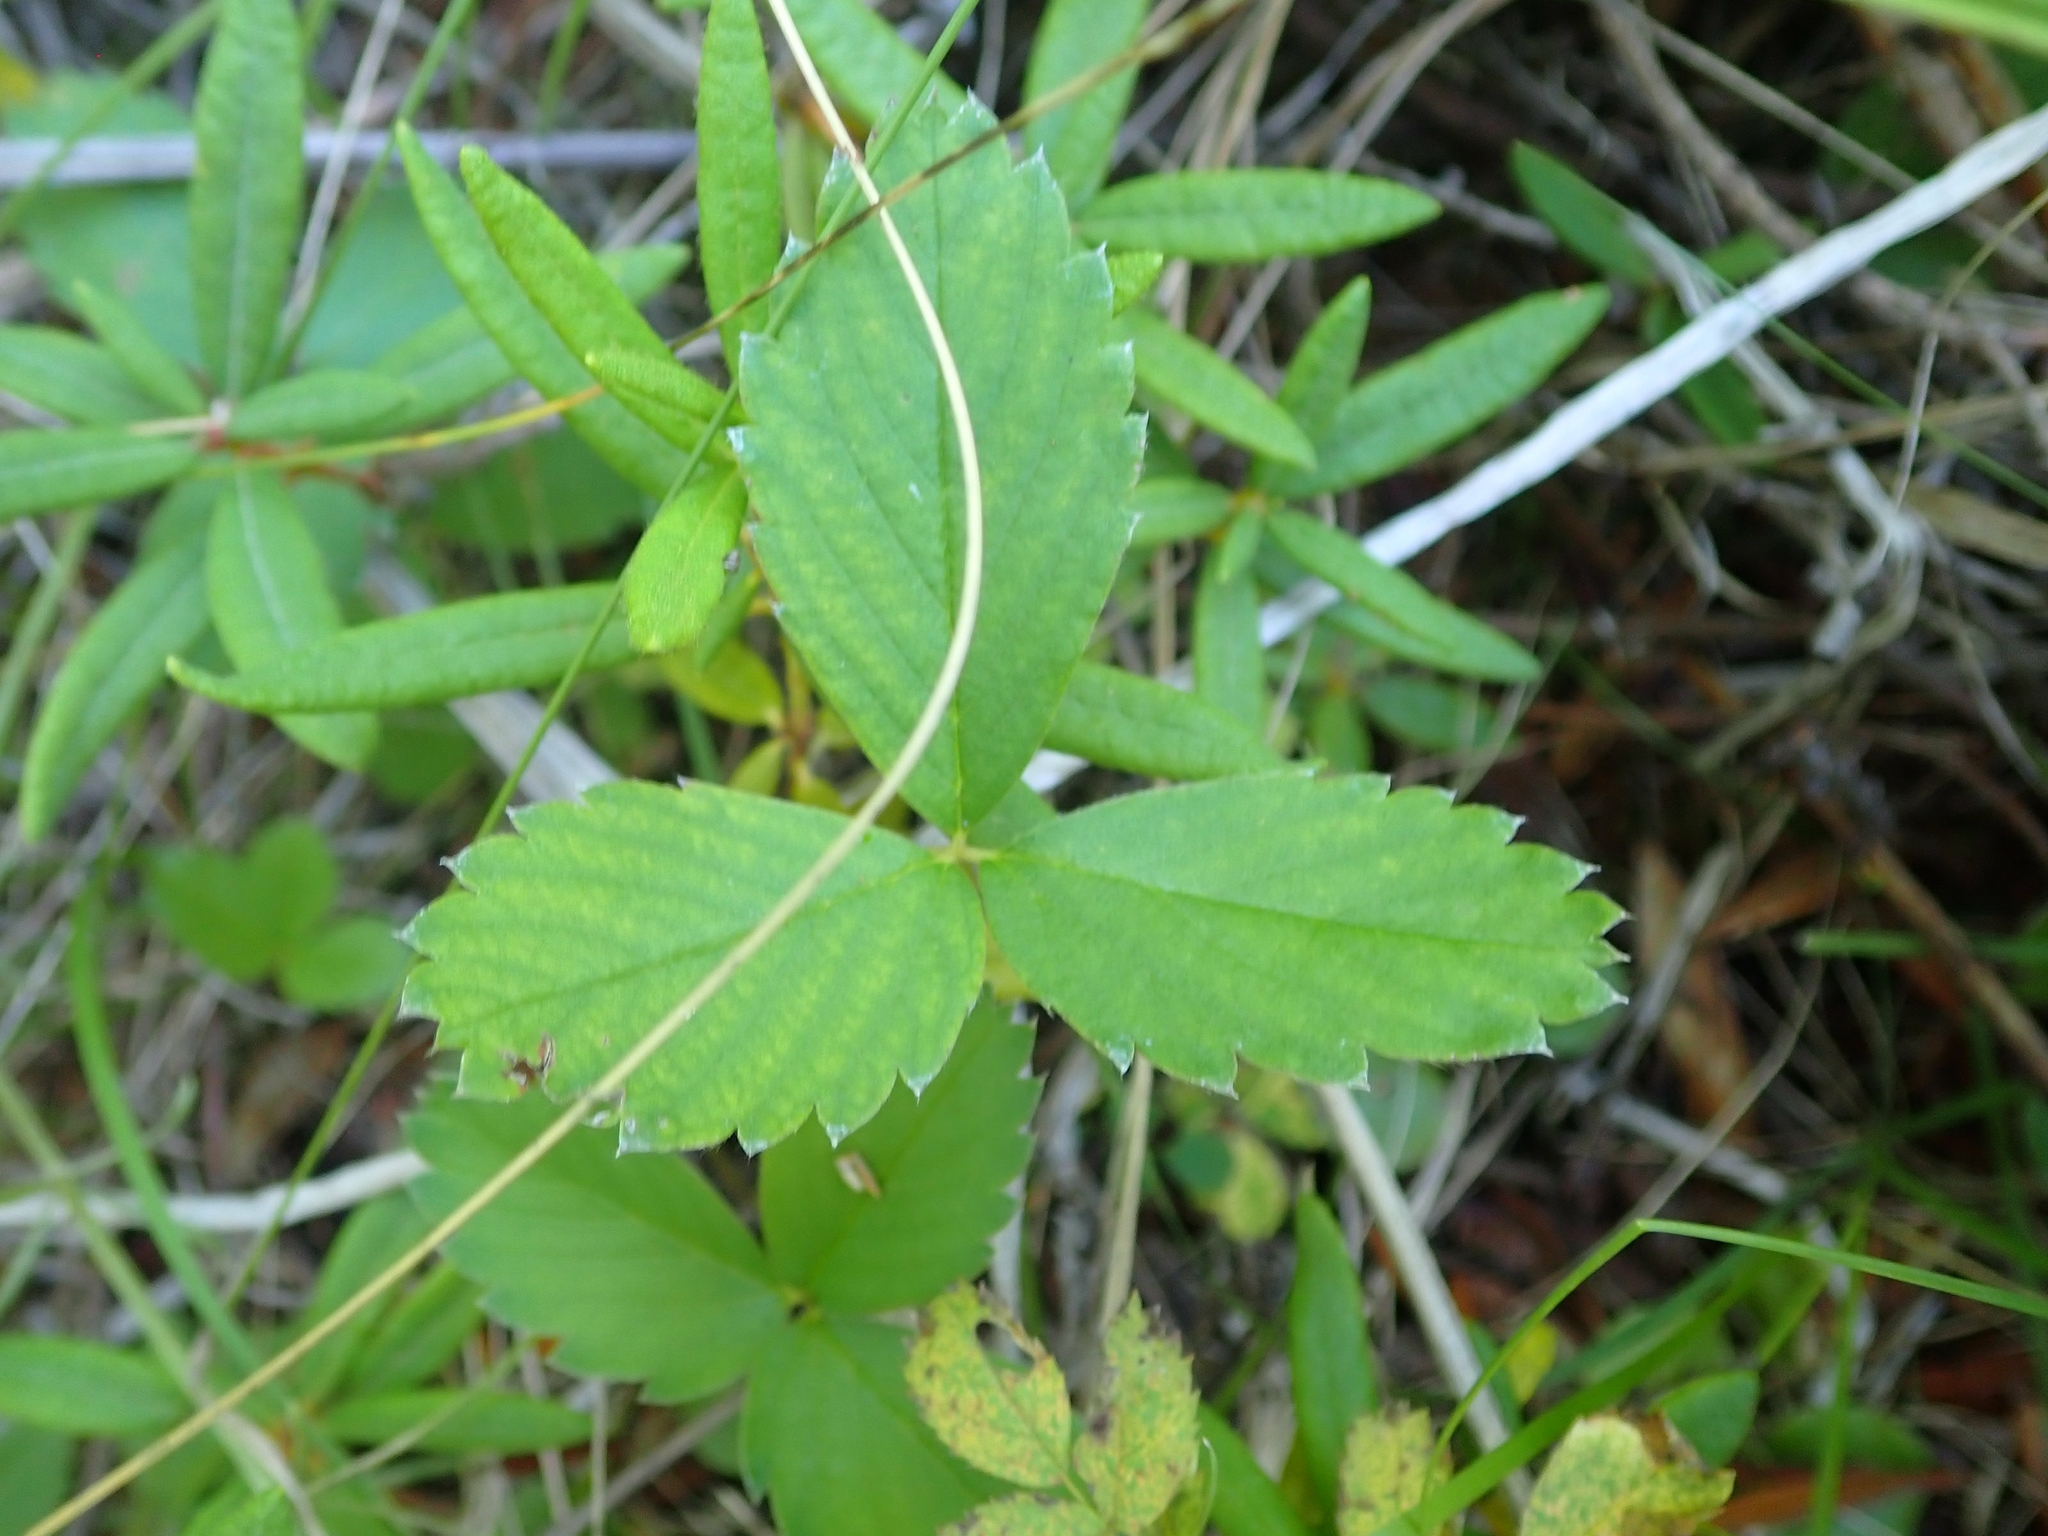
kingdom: Plantae
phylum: Tracheophyta
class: Magnoliopsida
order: Rosales
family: Rosaceae
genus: Fragaria
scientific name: Fragaria virginiana
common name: Thickleaved wild strawberry
